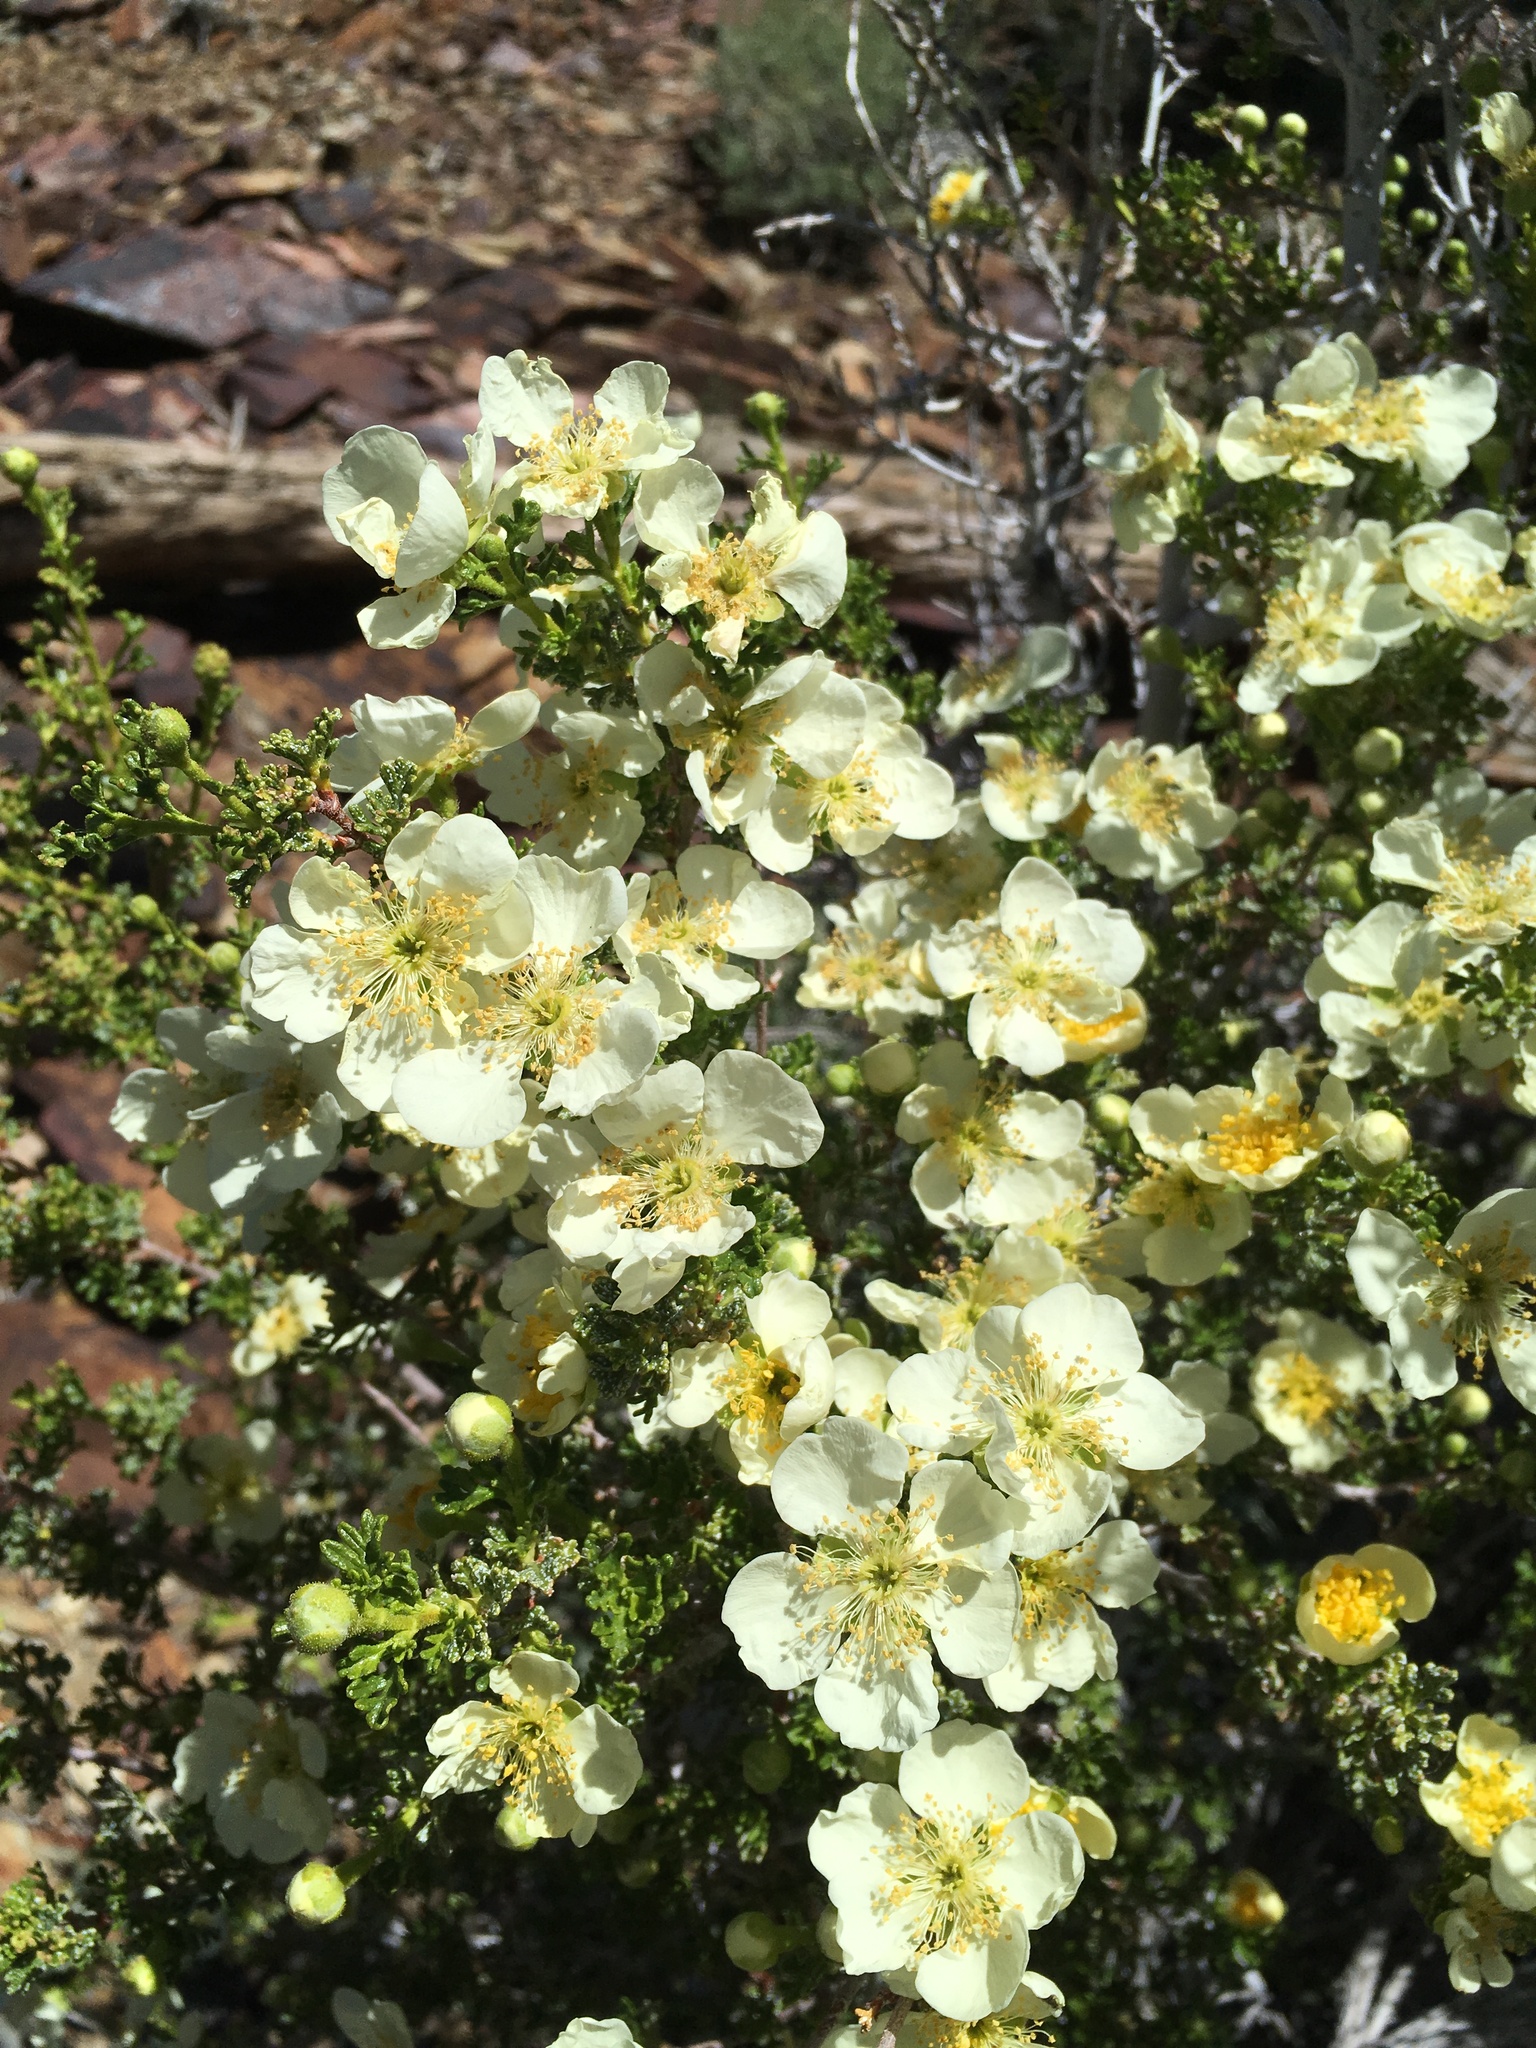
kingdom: Plantae
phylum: Tracheophyta
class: Magnoliopsida
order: Rosales
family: Rosaceae
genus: Purshia
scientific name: Purshia stansburiana
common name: Stansbury's cliffrose
